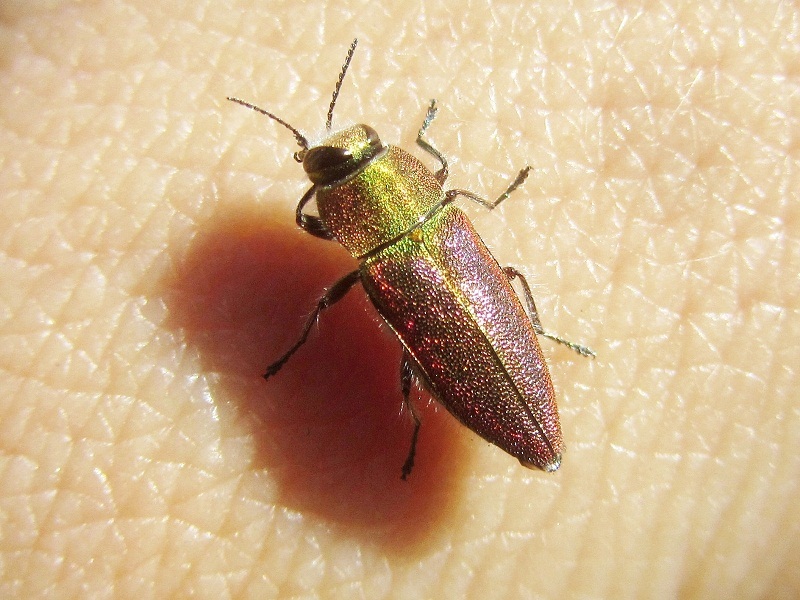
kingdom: Animalia
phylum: Arthropoda
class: Insecta
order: Coleoptera
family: Buprestidae
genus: Anthaxia
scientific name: Anthaxia senicula
